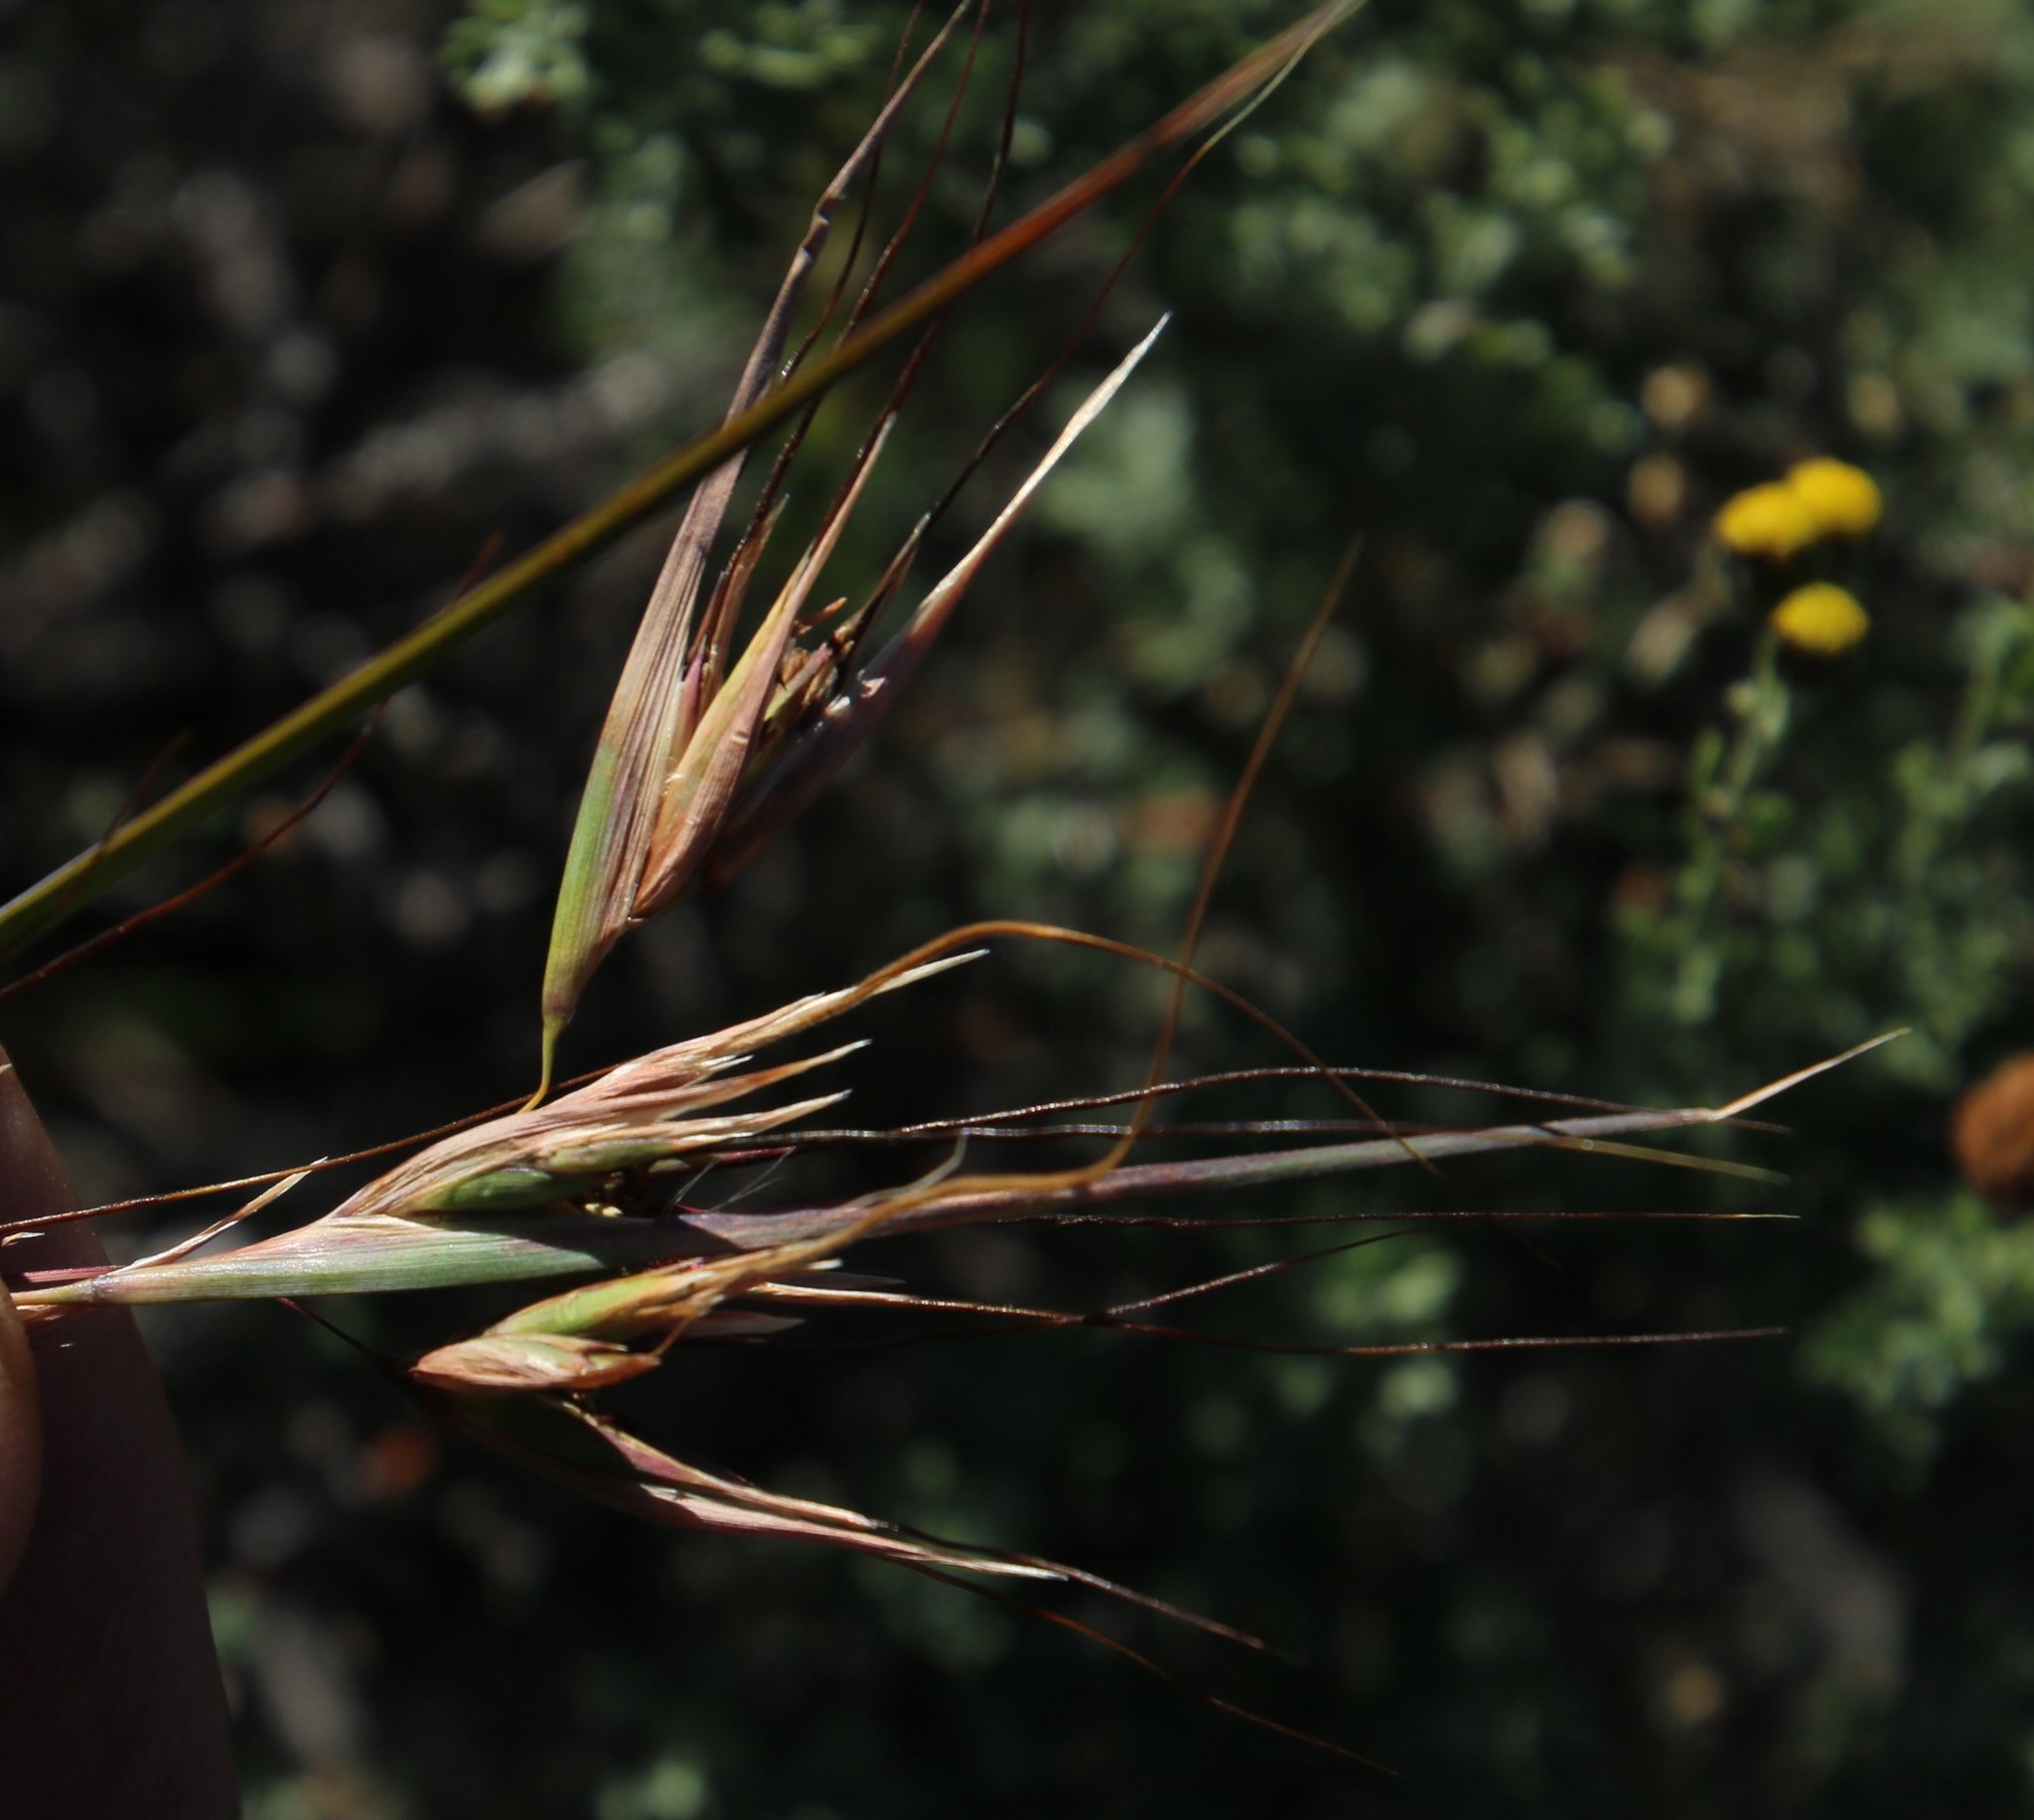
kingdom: Plantae
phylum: Tracheophyta
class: Liliopsida
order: Poales
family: Poaceae
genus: Themeda
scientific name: Themeda triandra
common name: Kangaroo grass
